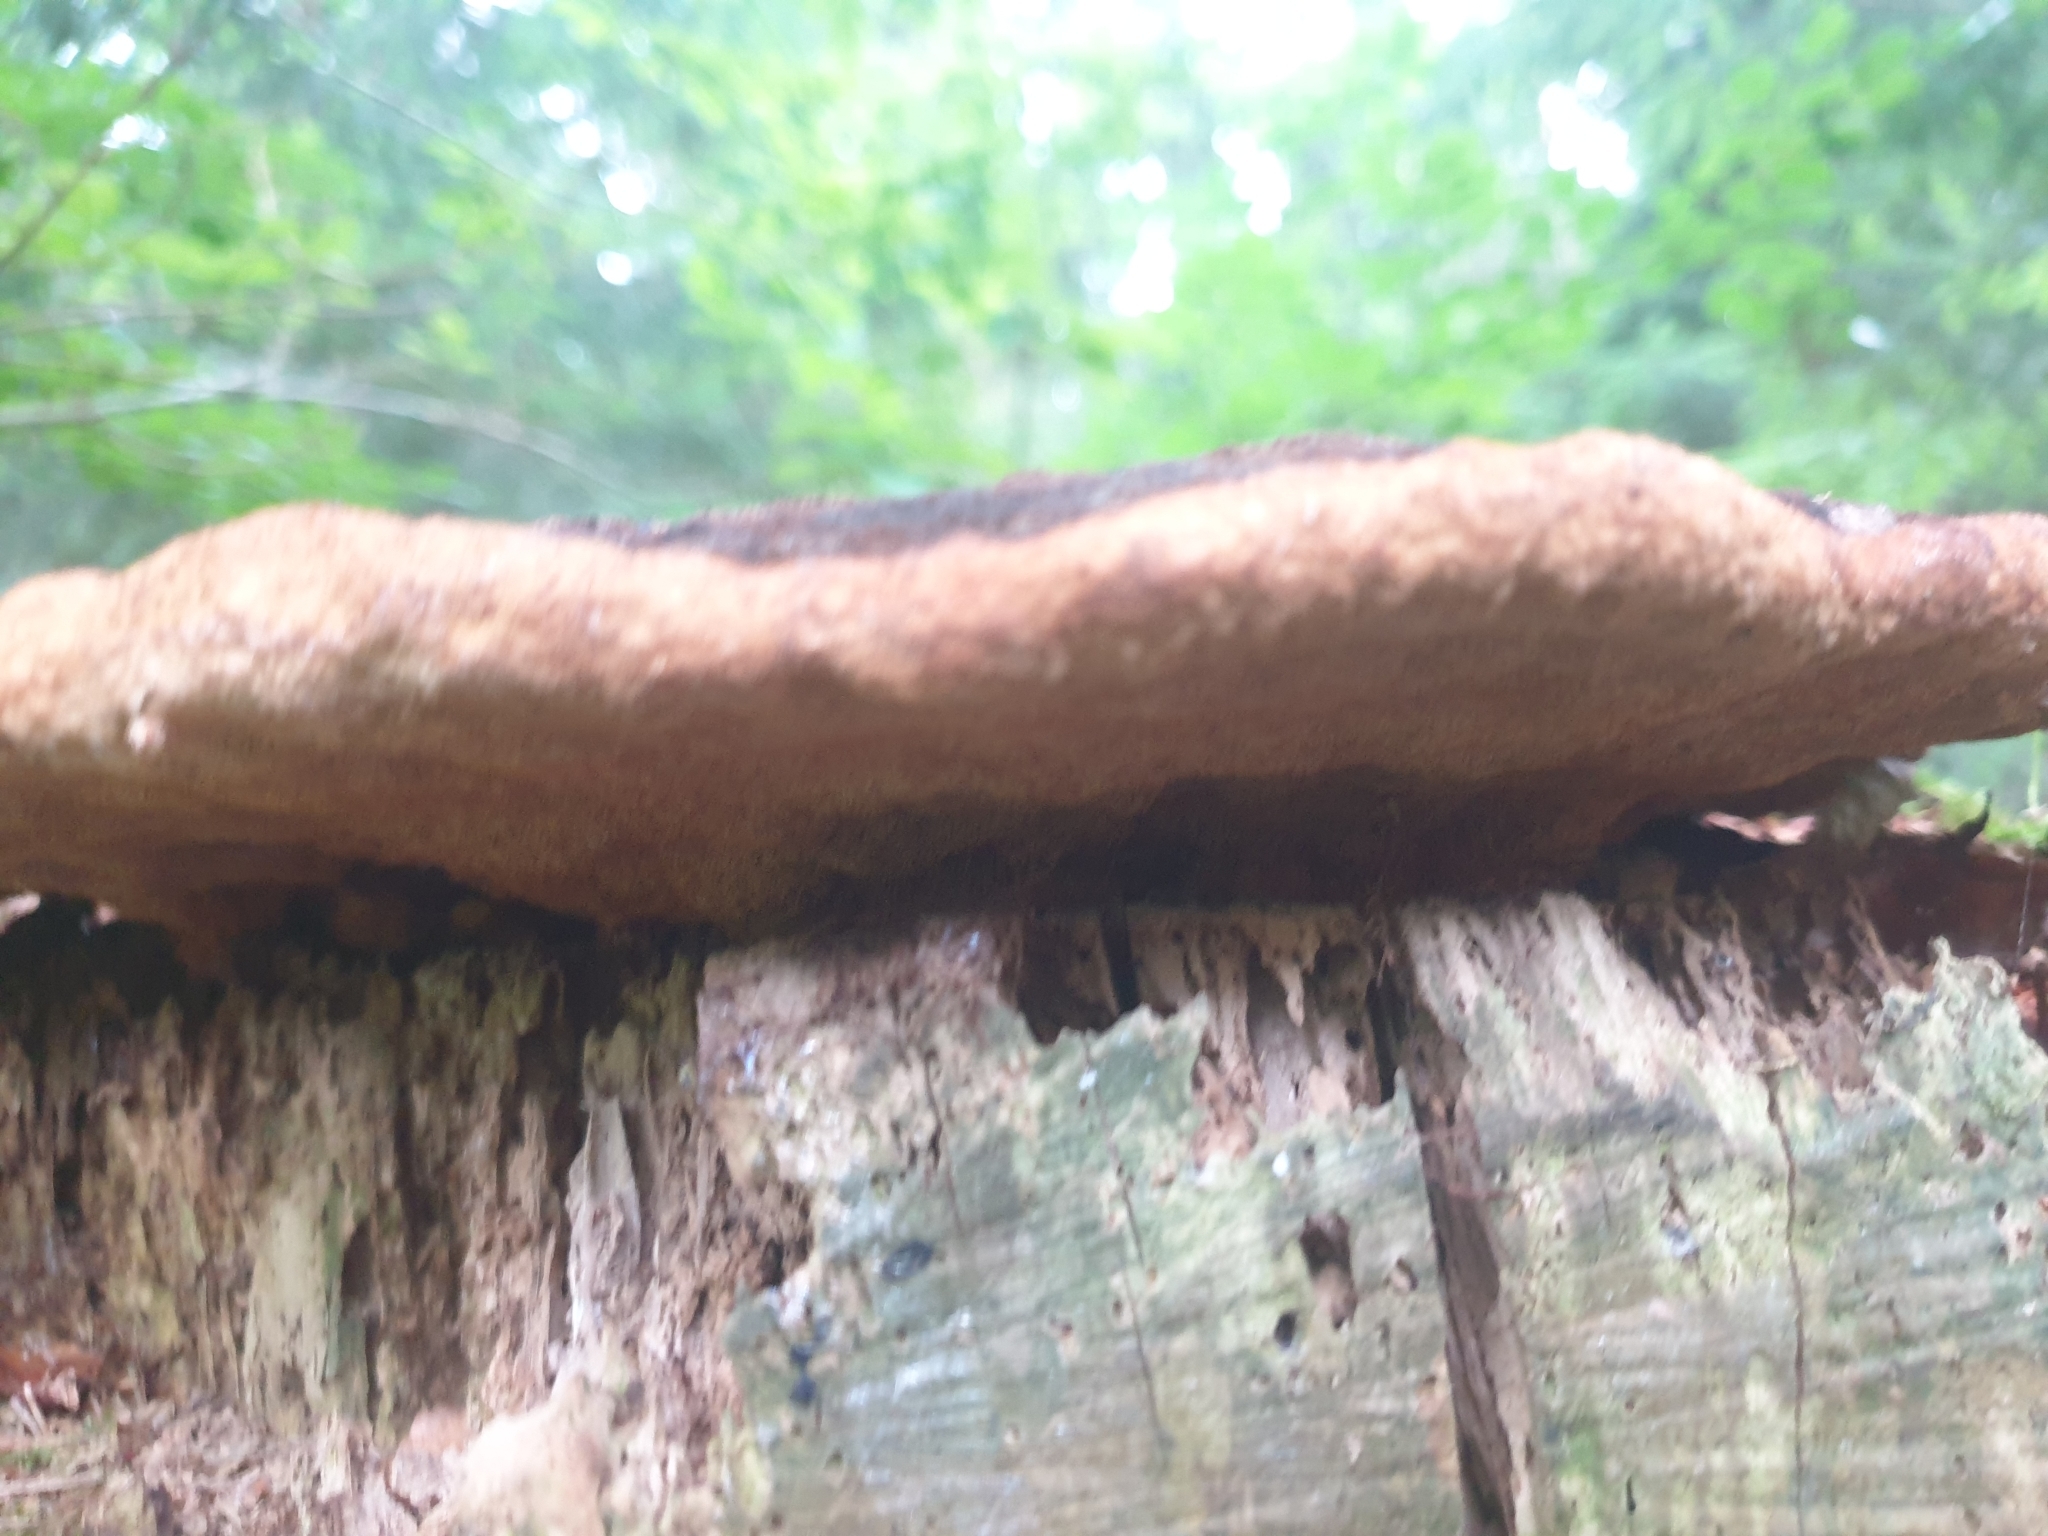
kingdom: Fungi
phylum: Basidiomycota
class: Agaricomycetes
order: Polyporales
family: Laetiporaceae
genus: Phaeolus
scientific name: Phaeolus schweinitzii
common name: Dyer's mazegill
